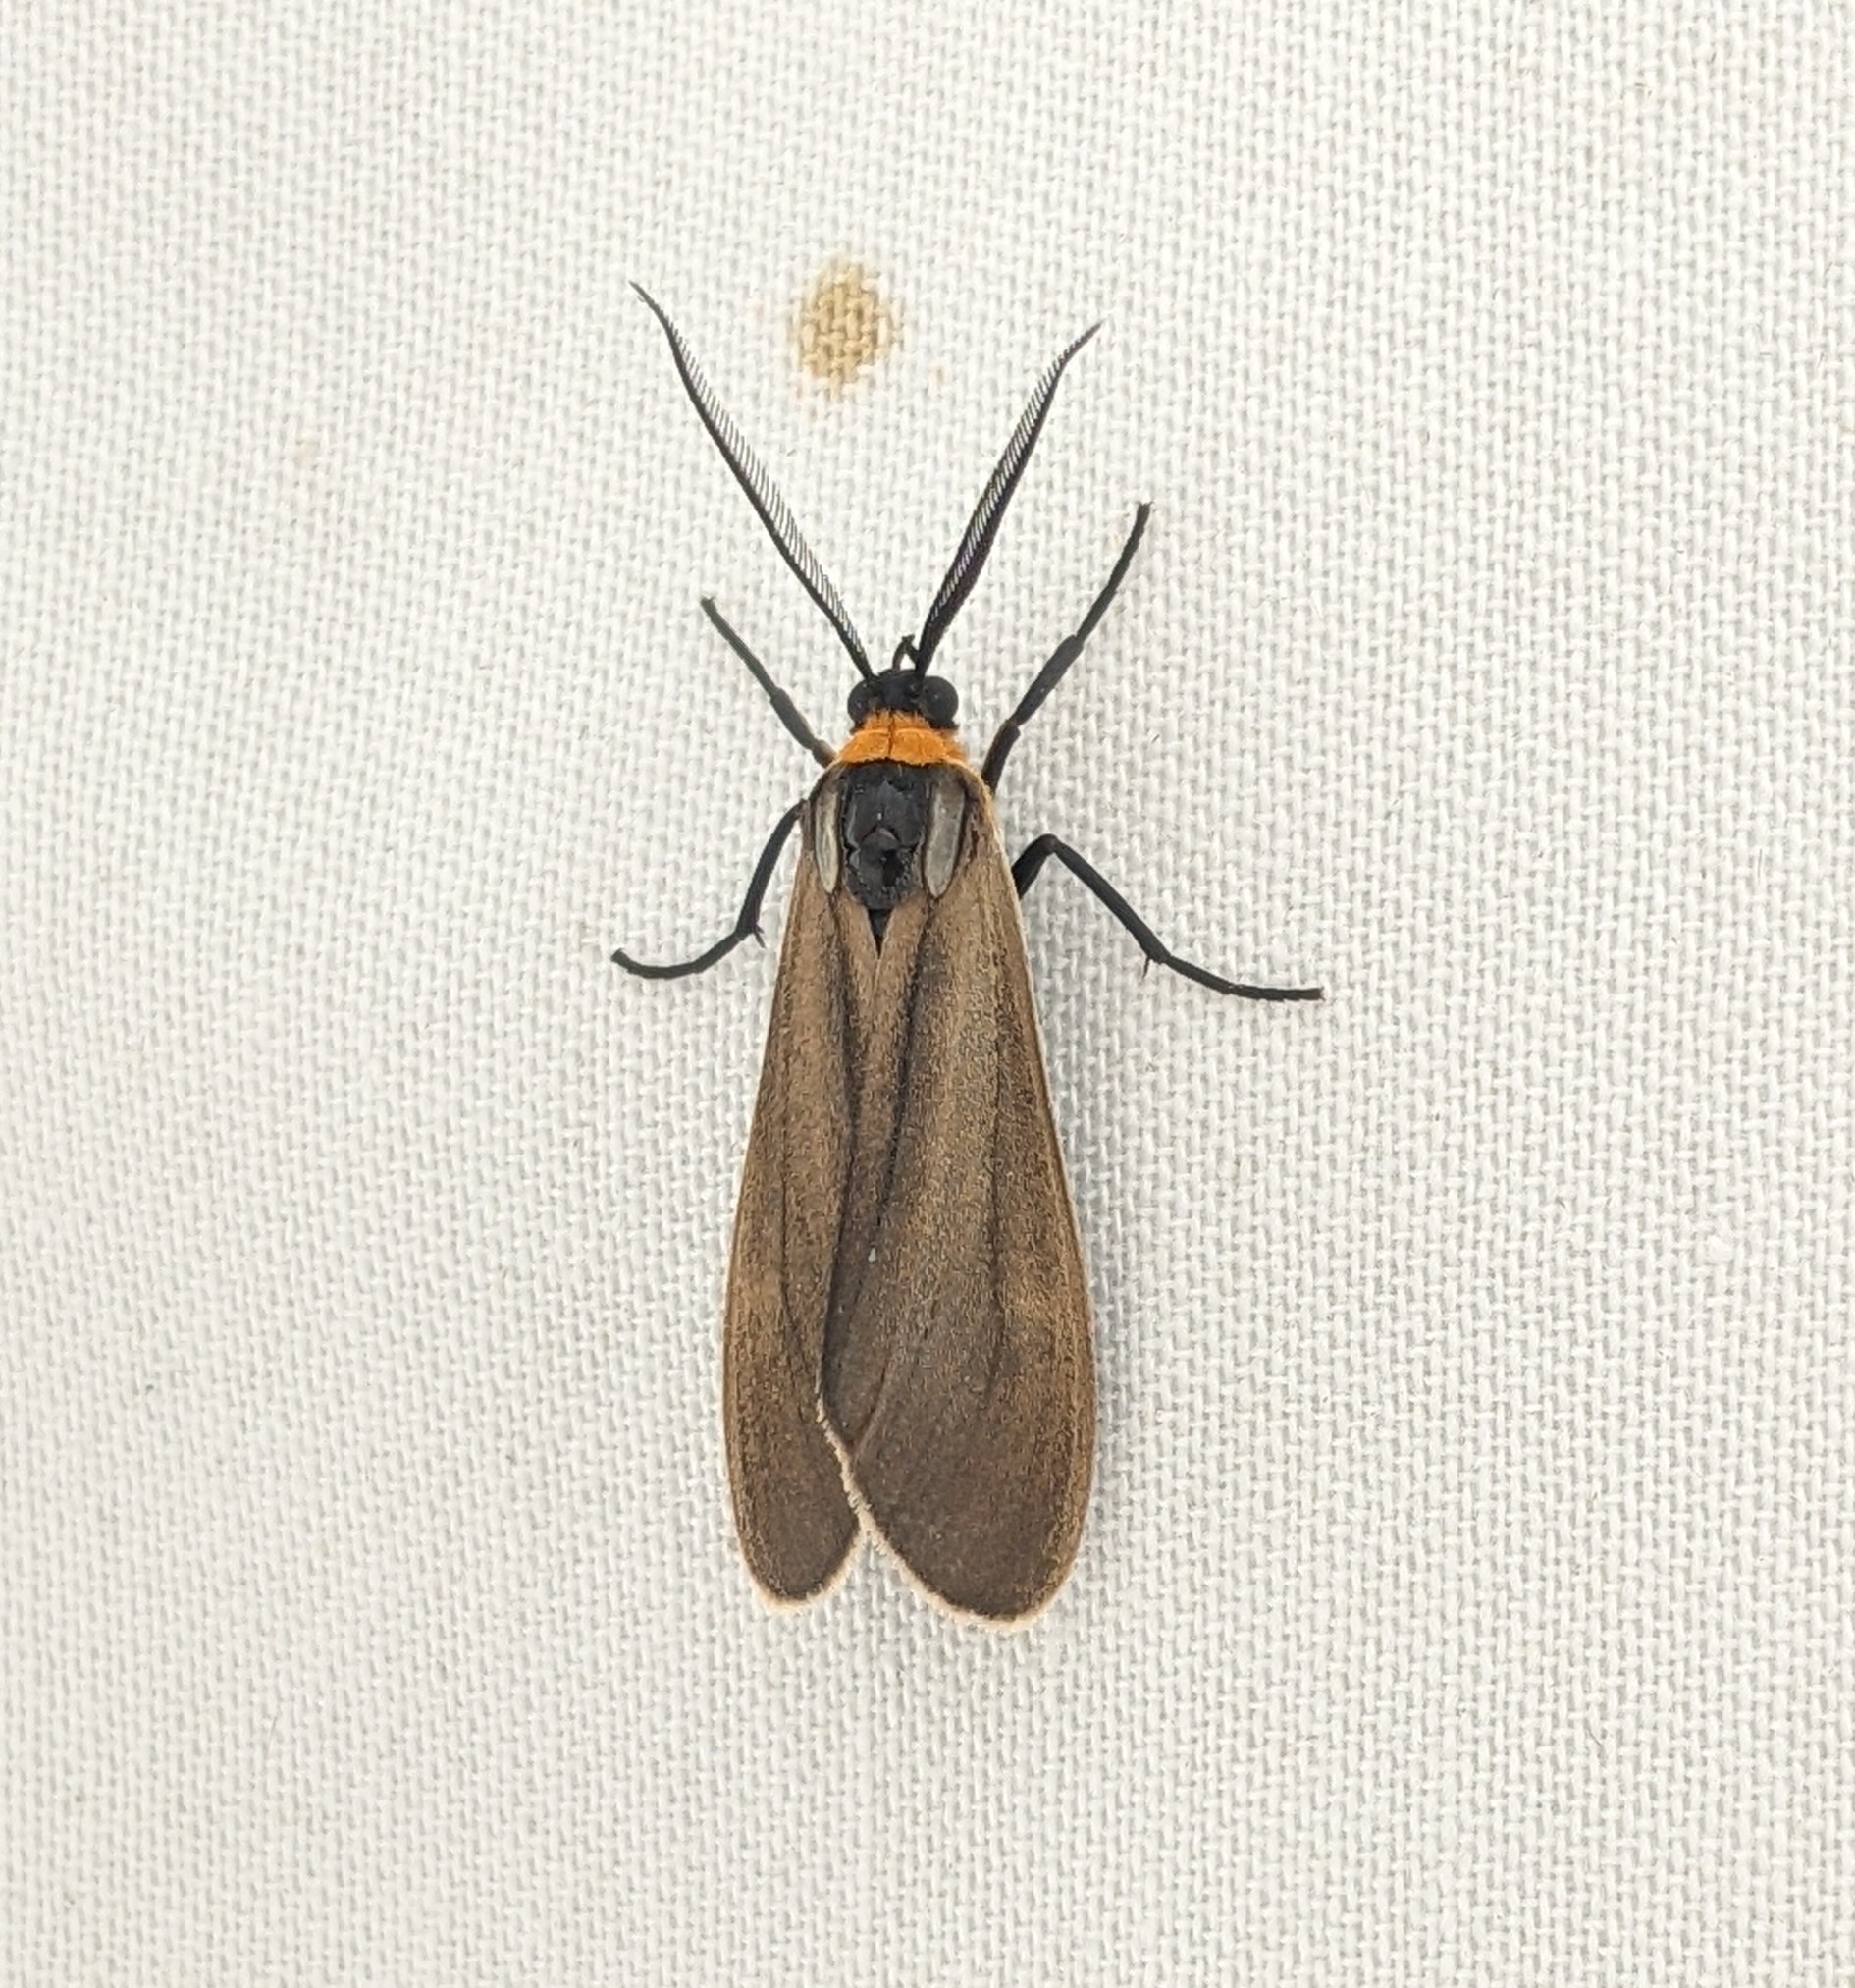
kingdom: Animalia
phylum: Arthropoda
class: Insecta
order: Lepidoptera
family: Erebidae
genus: Cisseps
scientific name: Cisseps fulvicollis
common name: Yellow-collared scape moth
